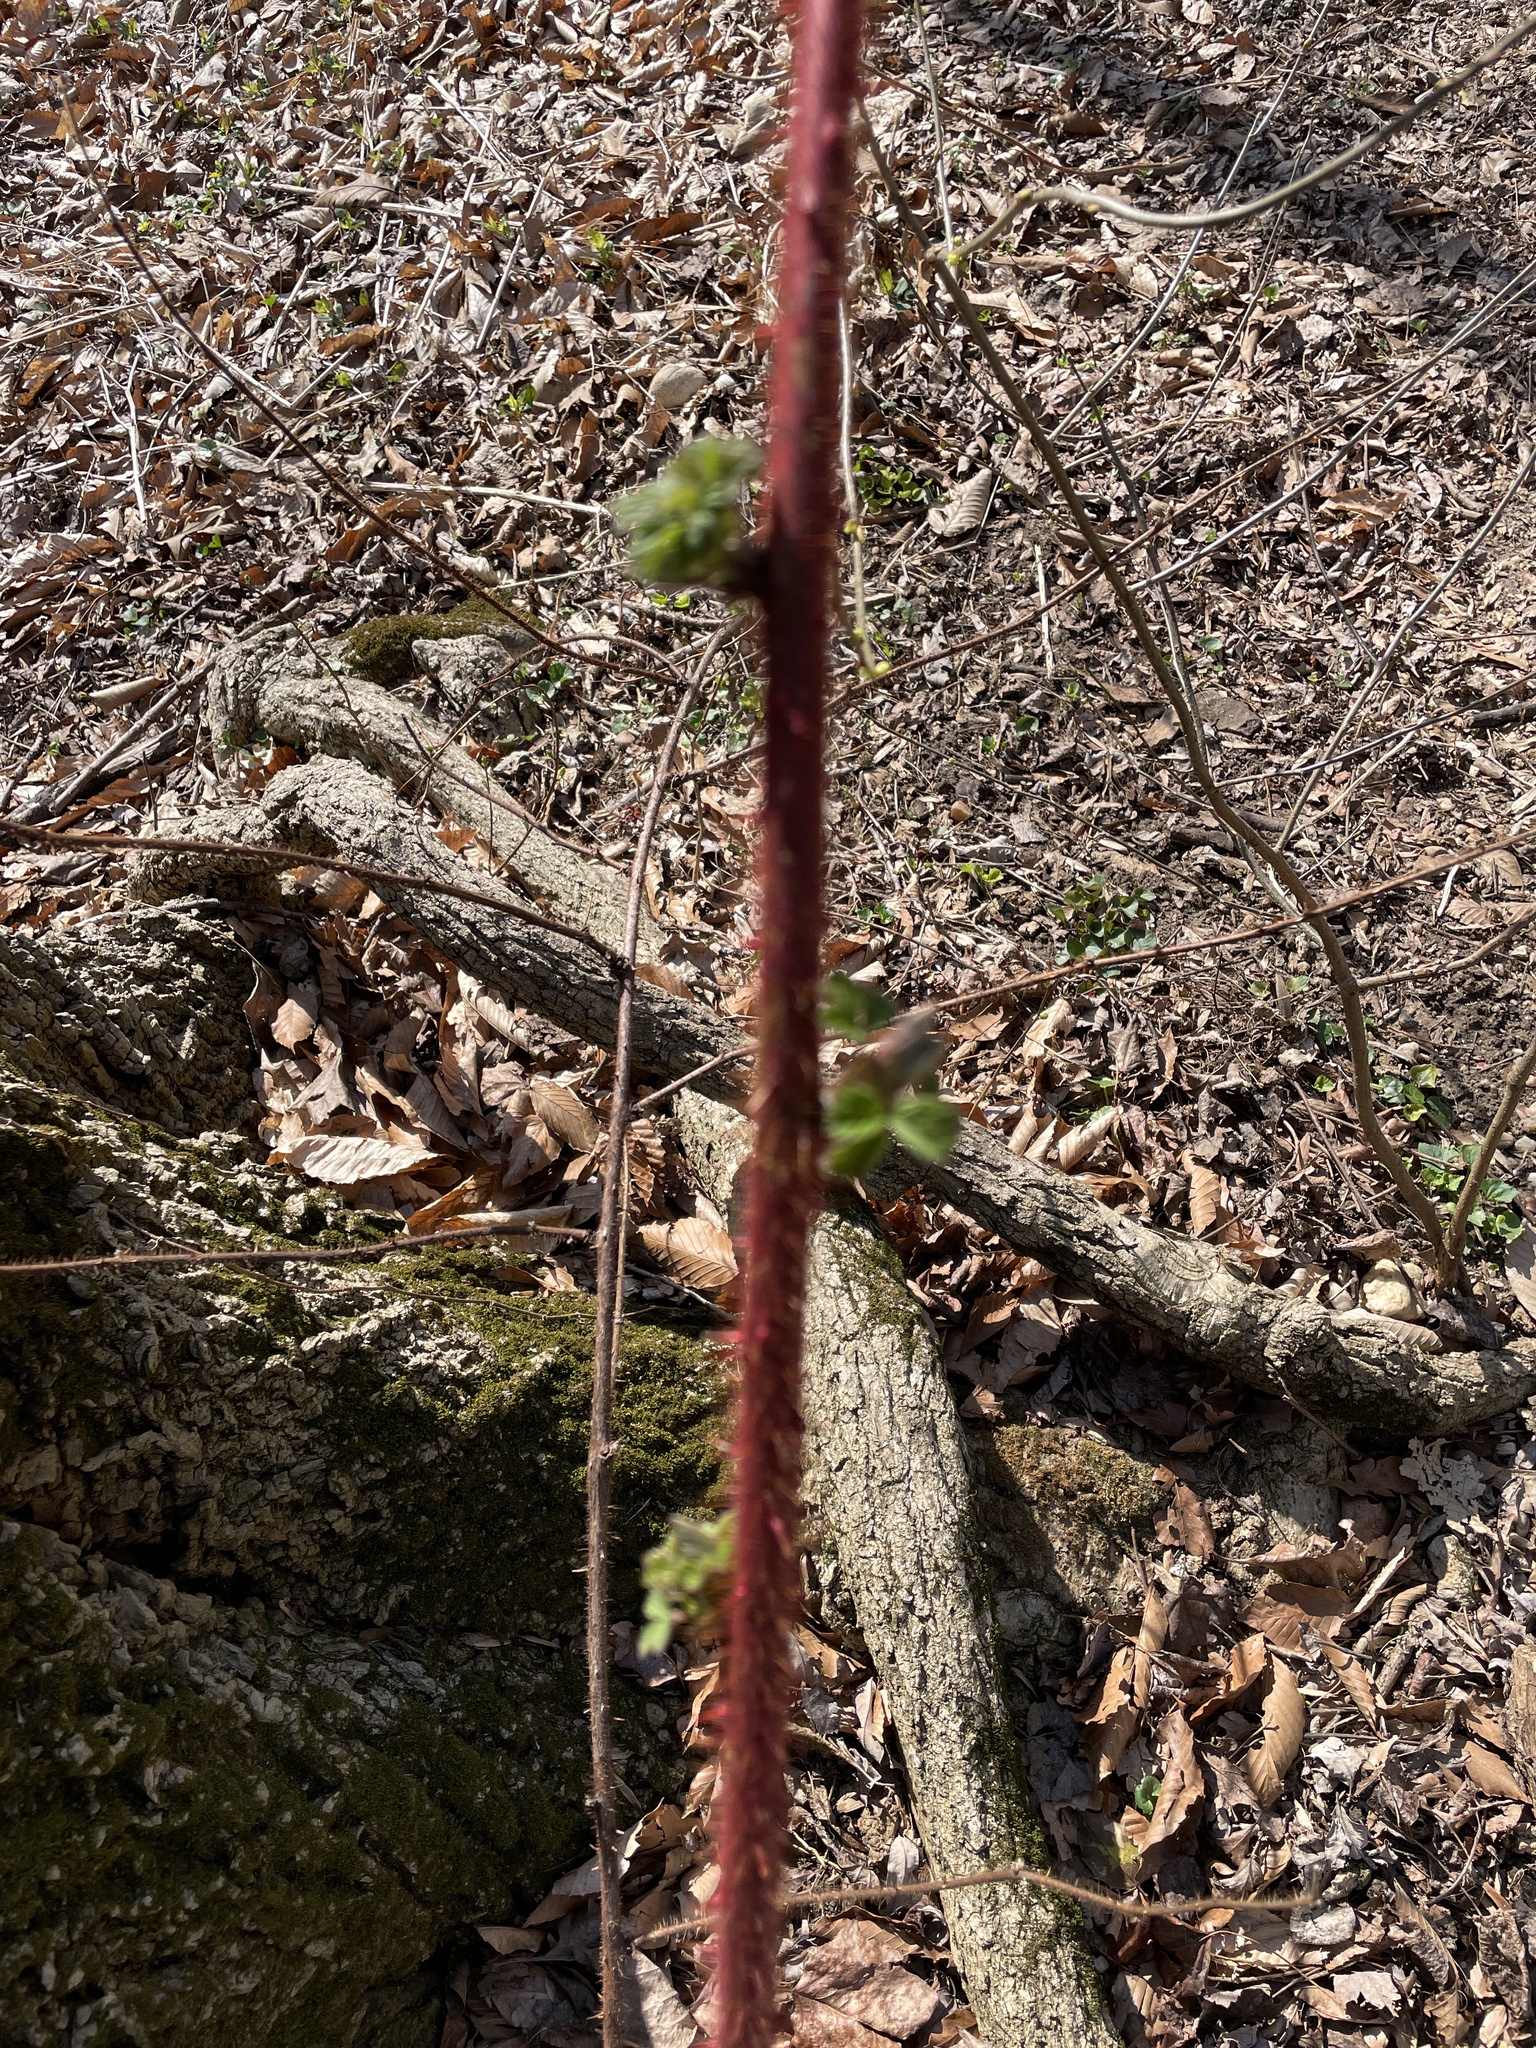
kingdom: Plantae
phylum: Tracheophyta
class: Magnoliopsida
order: Rosales
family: Rosaceae
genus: Rubus
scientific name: Rubus phoenicolasius
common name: Japanese wineberry
